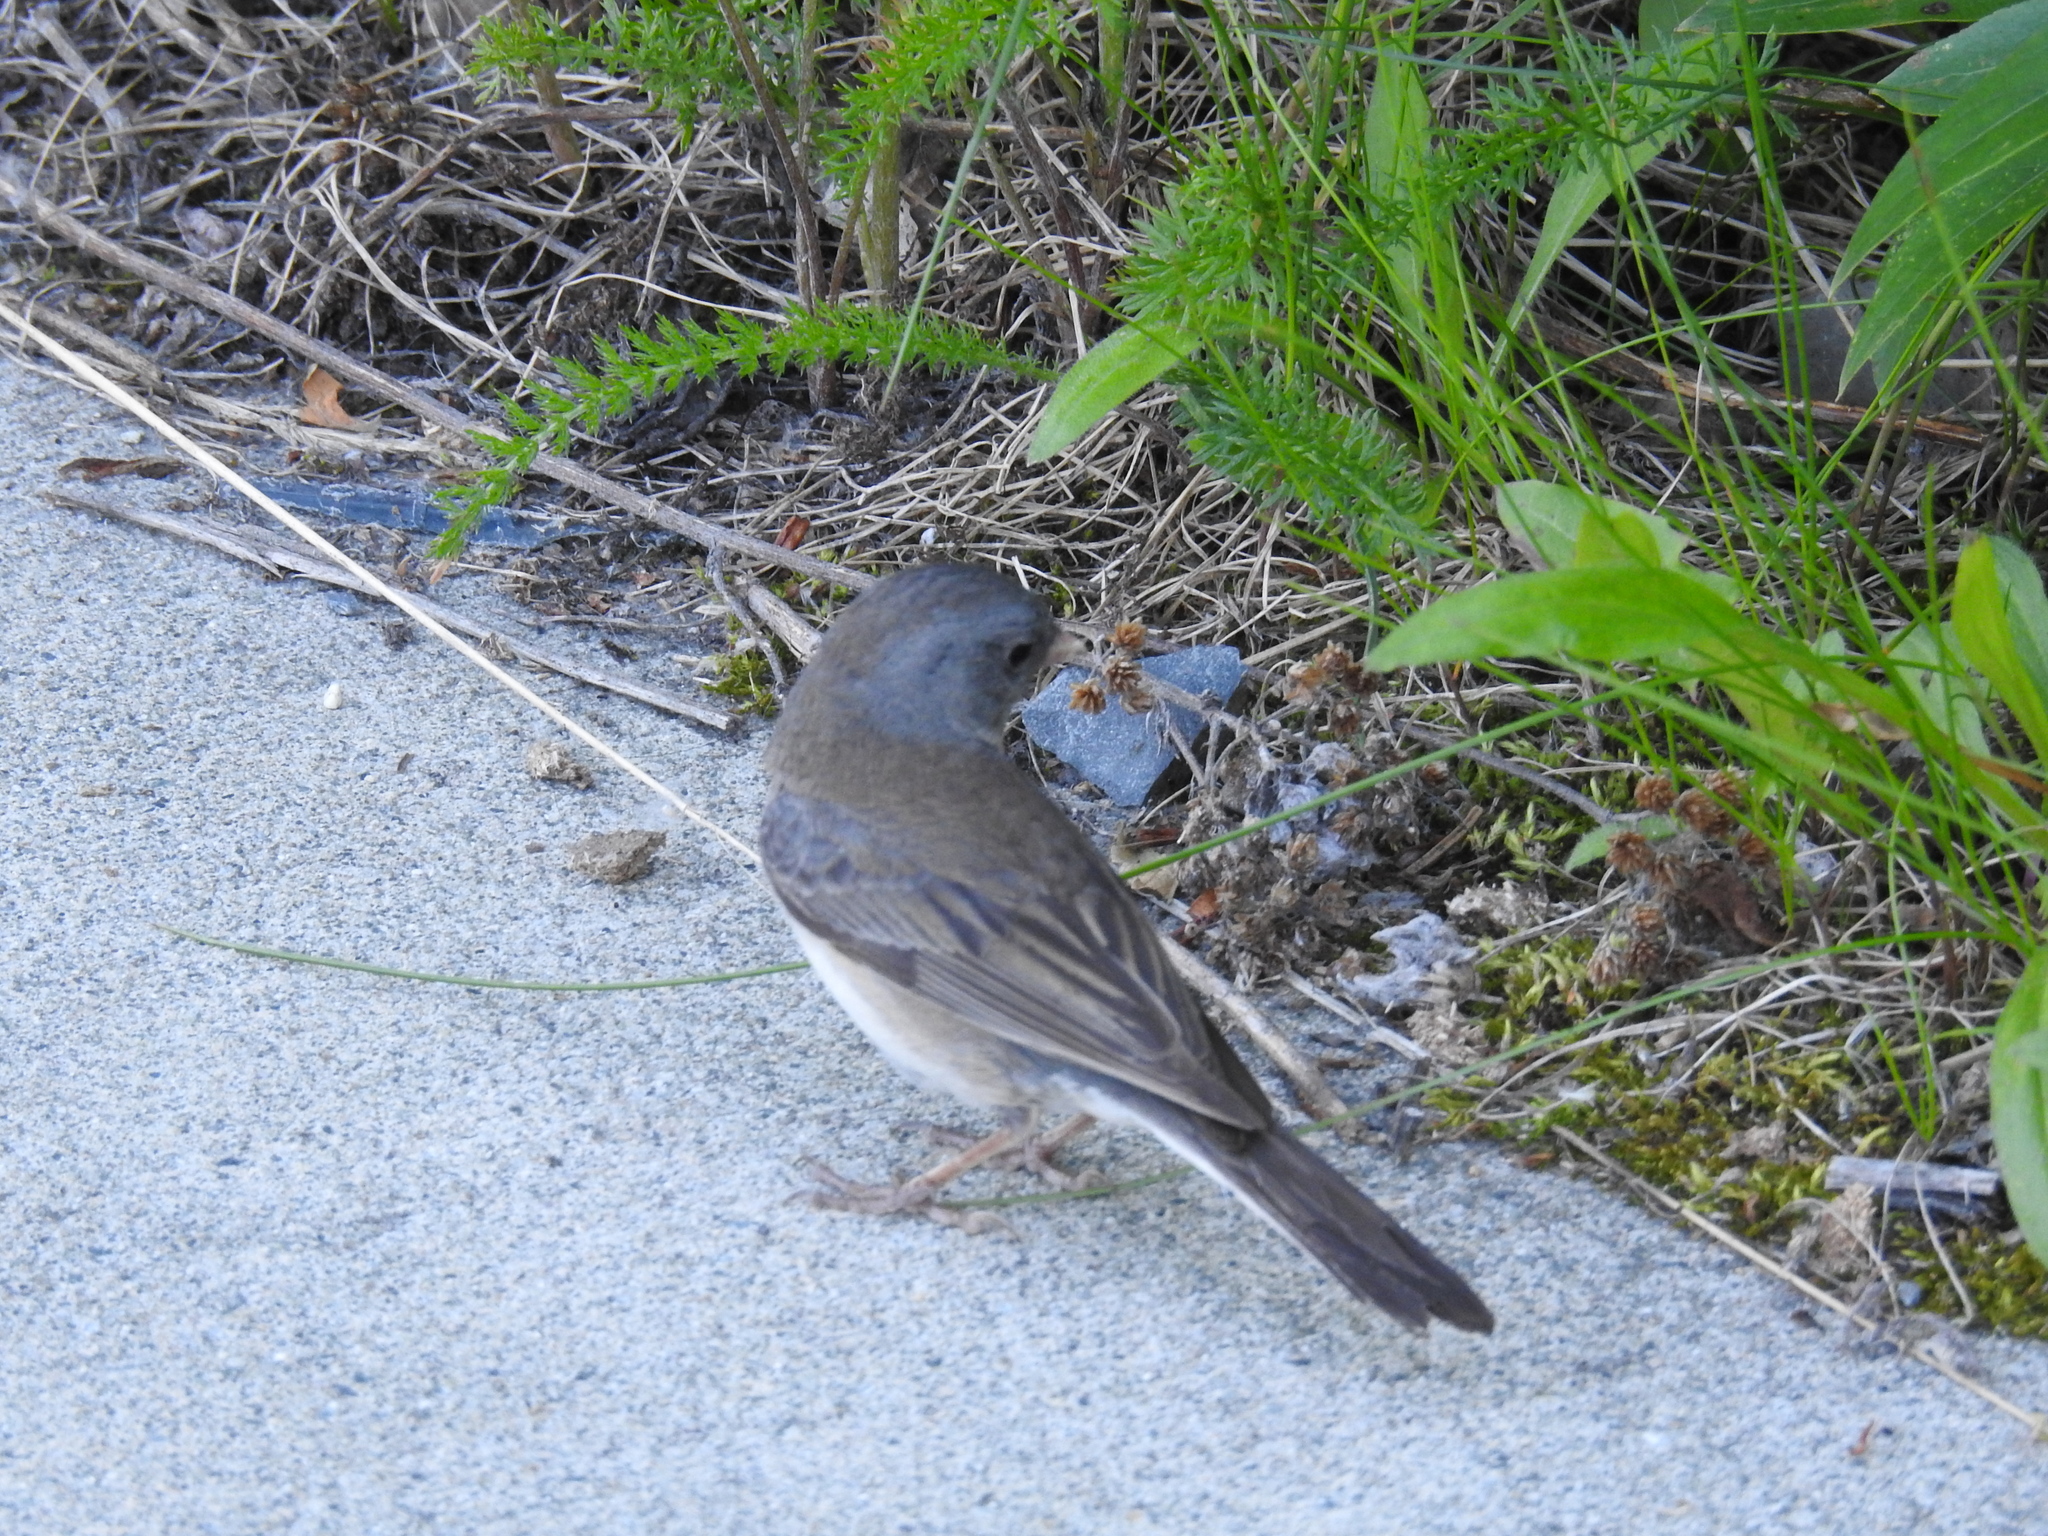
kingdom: Animalia
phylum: Chordata
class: Aves
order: Passeriformes
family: Passerellidae
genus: Junco
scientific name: Junco hyemalis
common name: Dark-eyed junco
